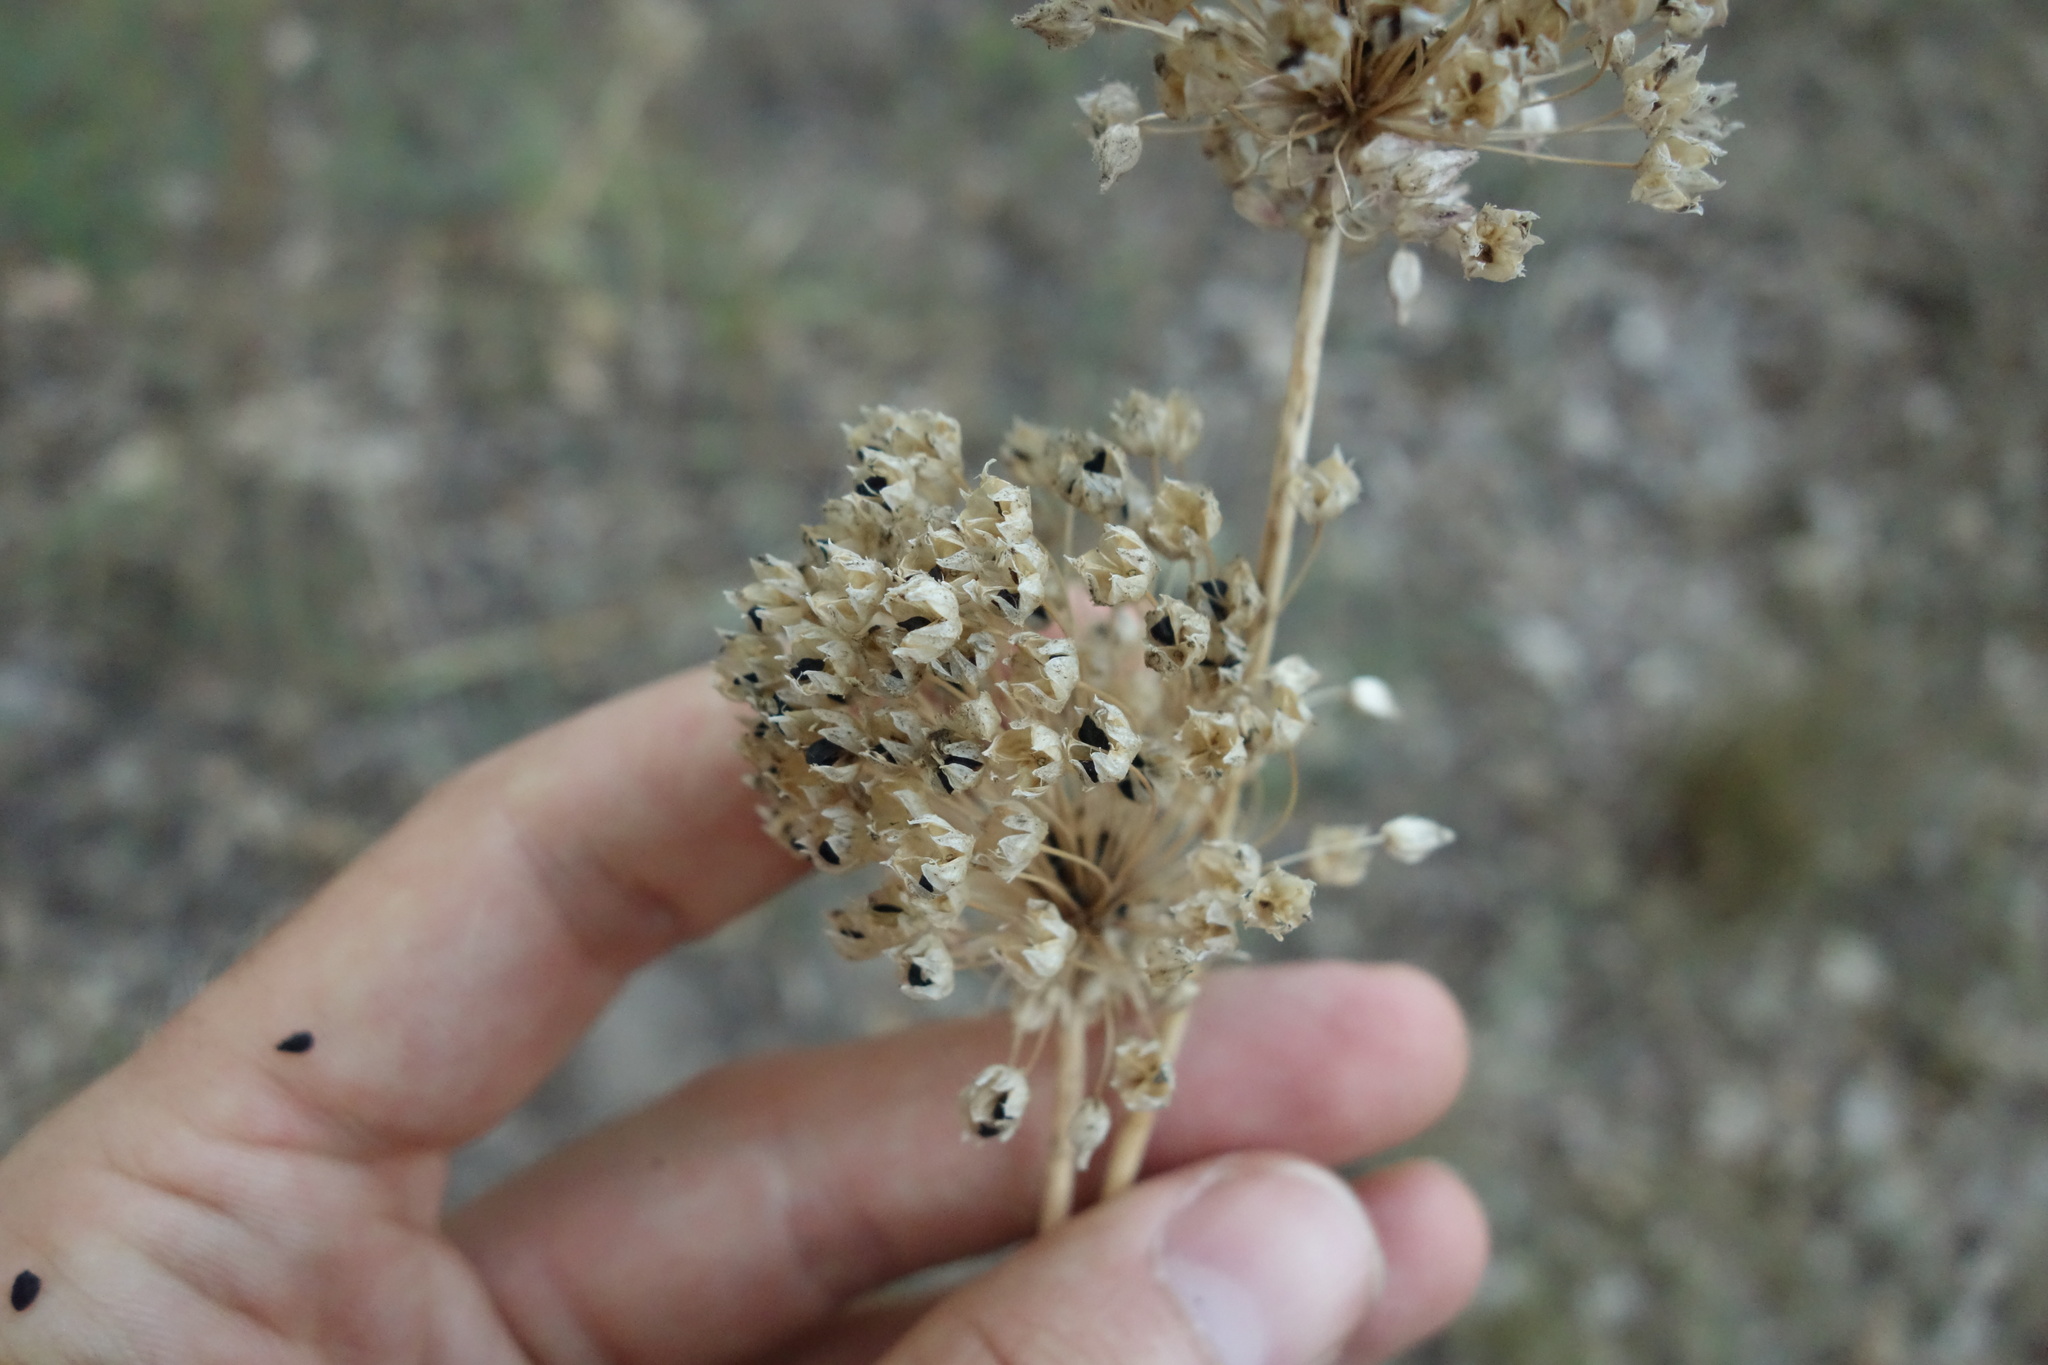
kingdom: Plantae
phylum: Tracheophyta
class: Liliopsida
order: Asparagales
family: Amaryllidaceae
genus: Allium
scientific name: Allium rotundum
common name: Sand leek
